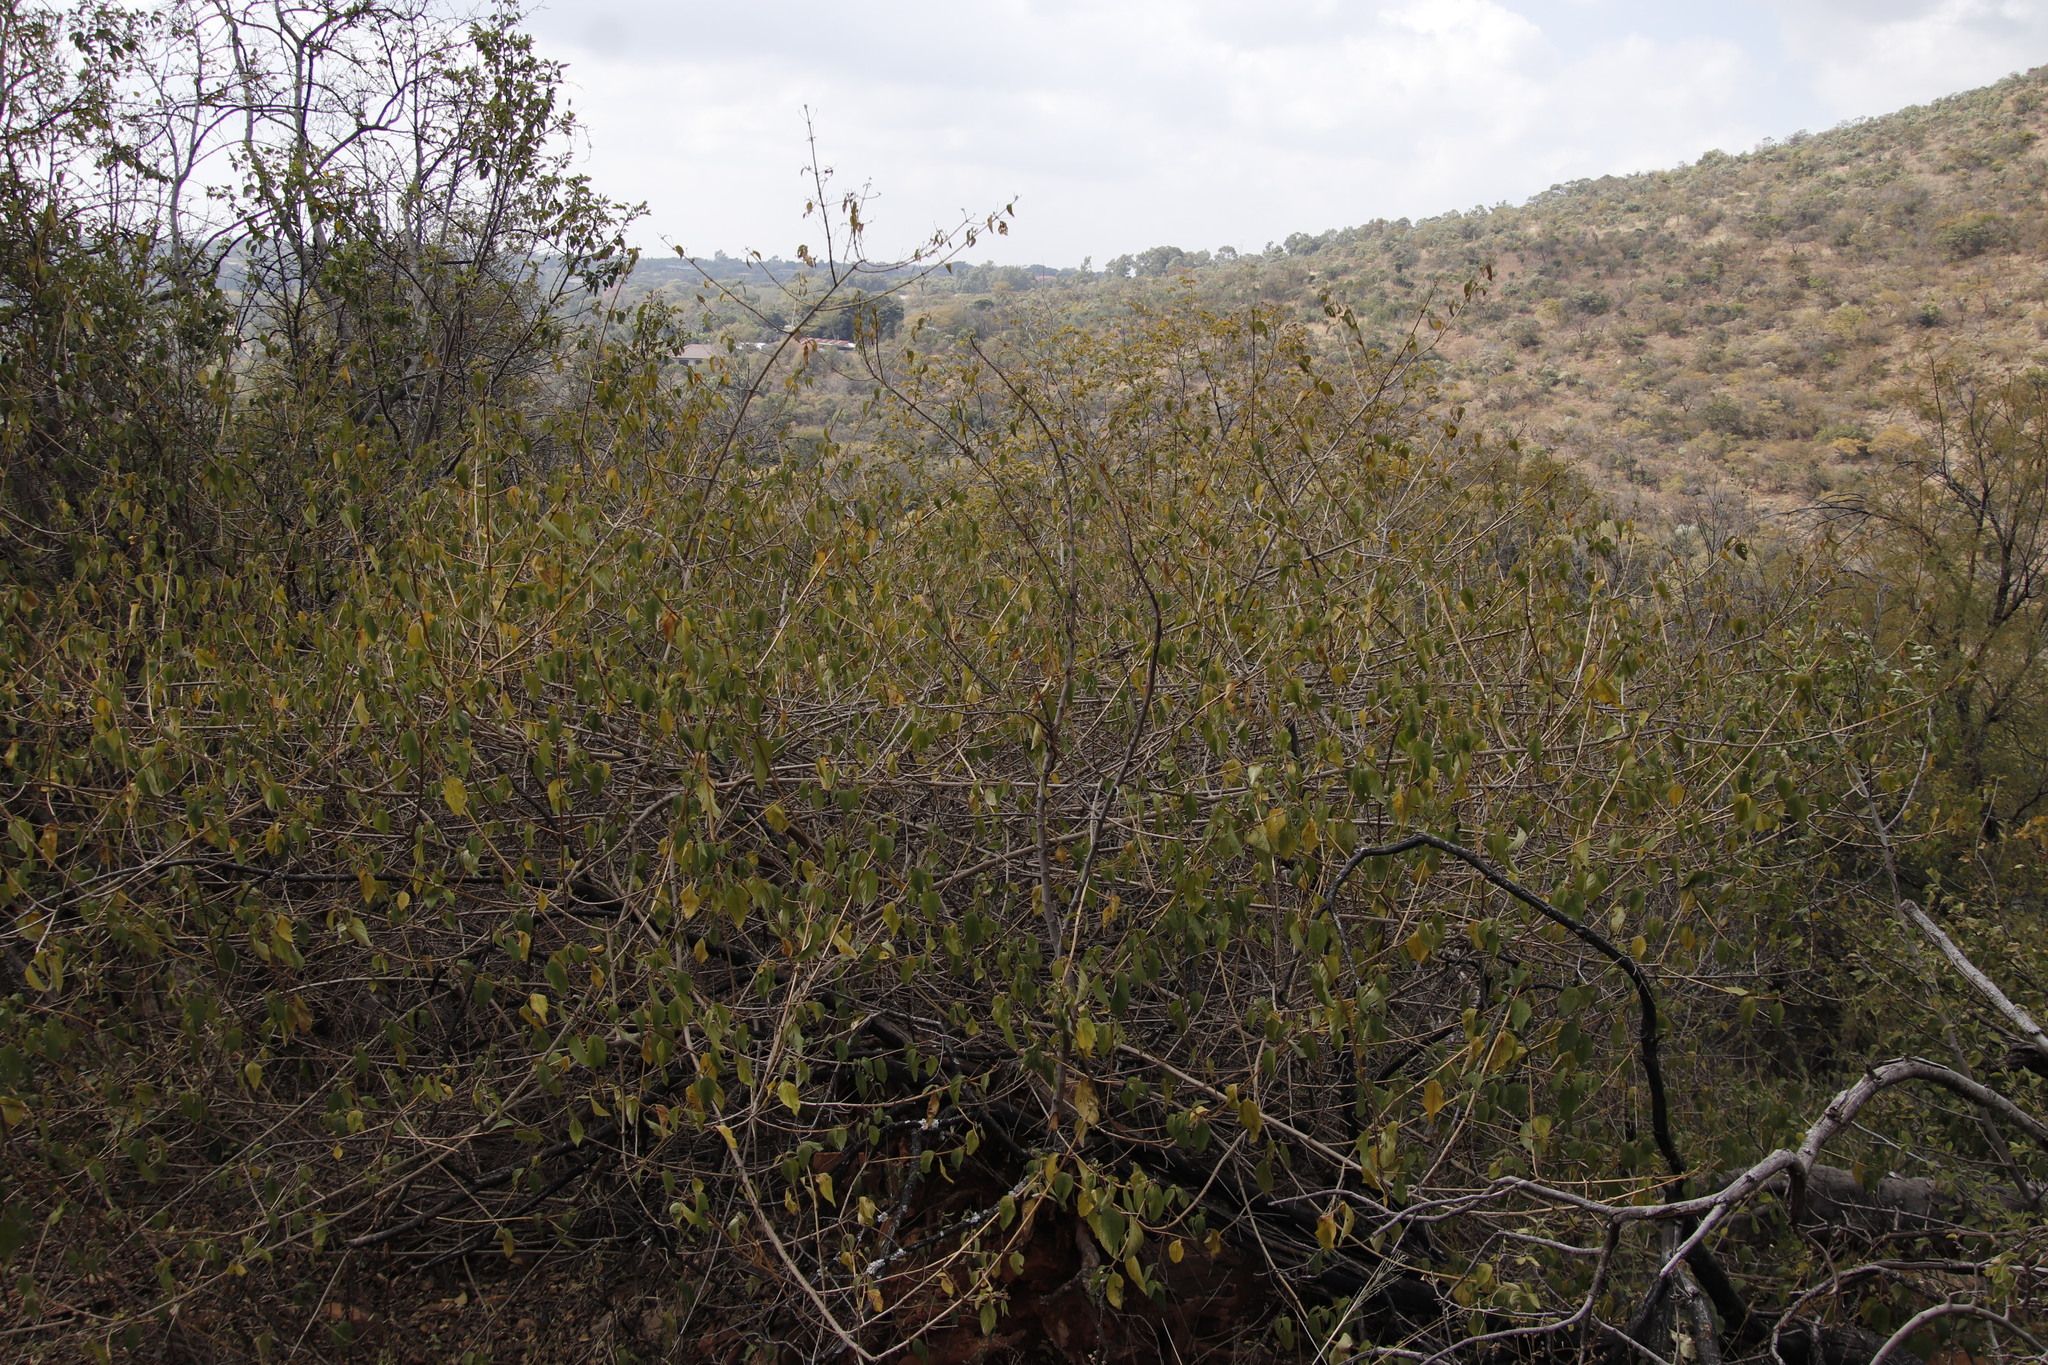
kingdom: Plantae
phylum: Tracheophyta
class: Magnoliopsida
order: Lamiales
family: Verbenaceae
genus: Lantana
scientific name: Lantana camara
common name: Lantana
